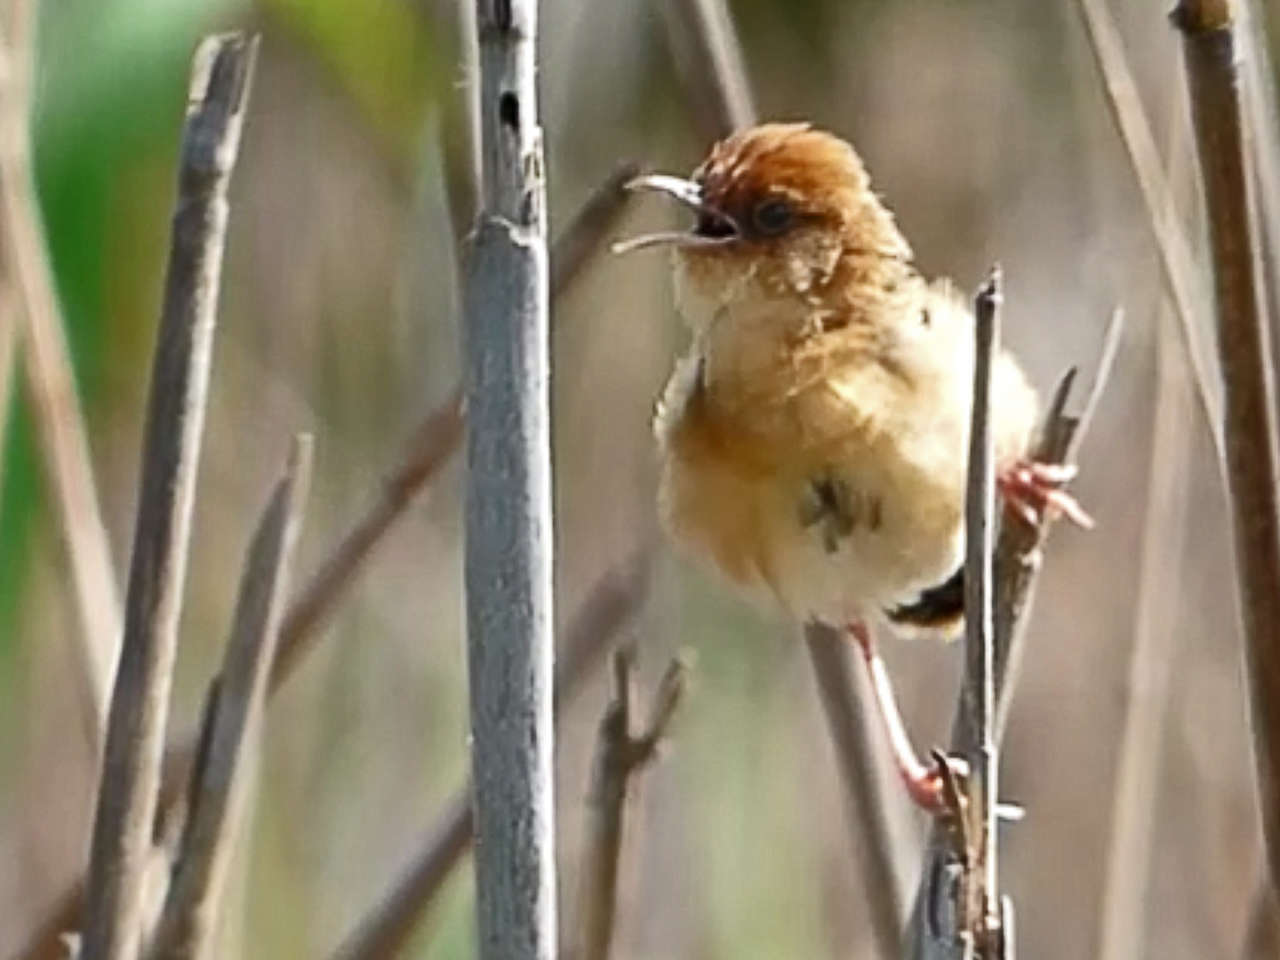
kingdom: Animalia
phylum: Chordata
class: Aves
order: Passeriformes
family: Cisticolidae
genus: Cisticola
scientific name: Cisticola exilis
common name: Golden-headed cisticola
